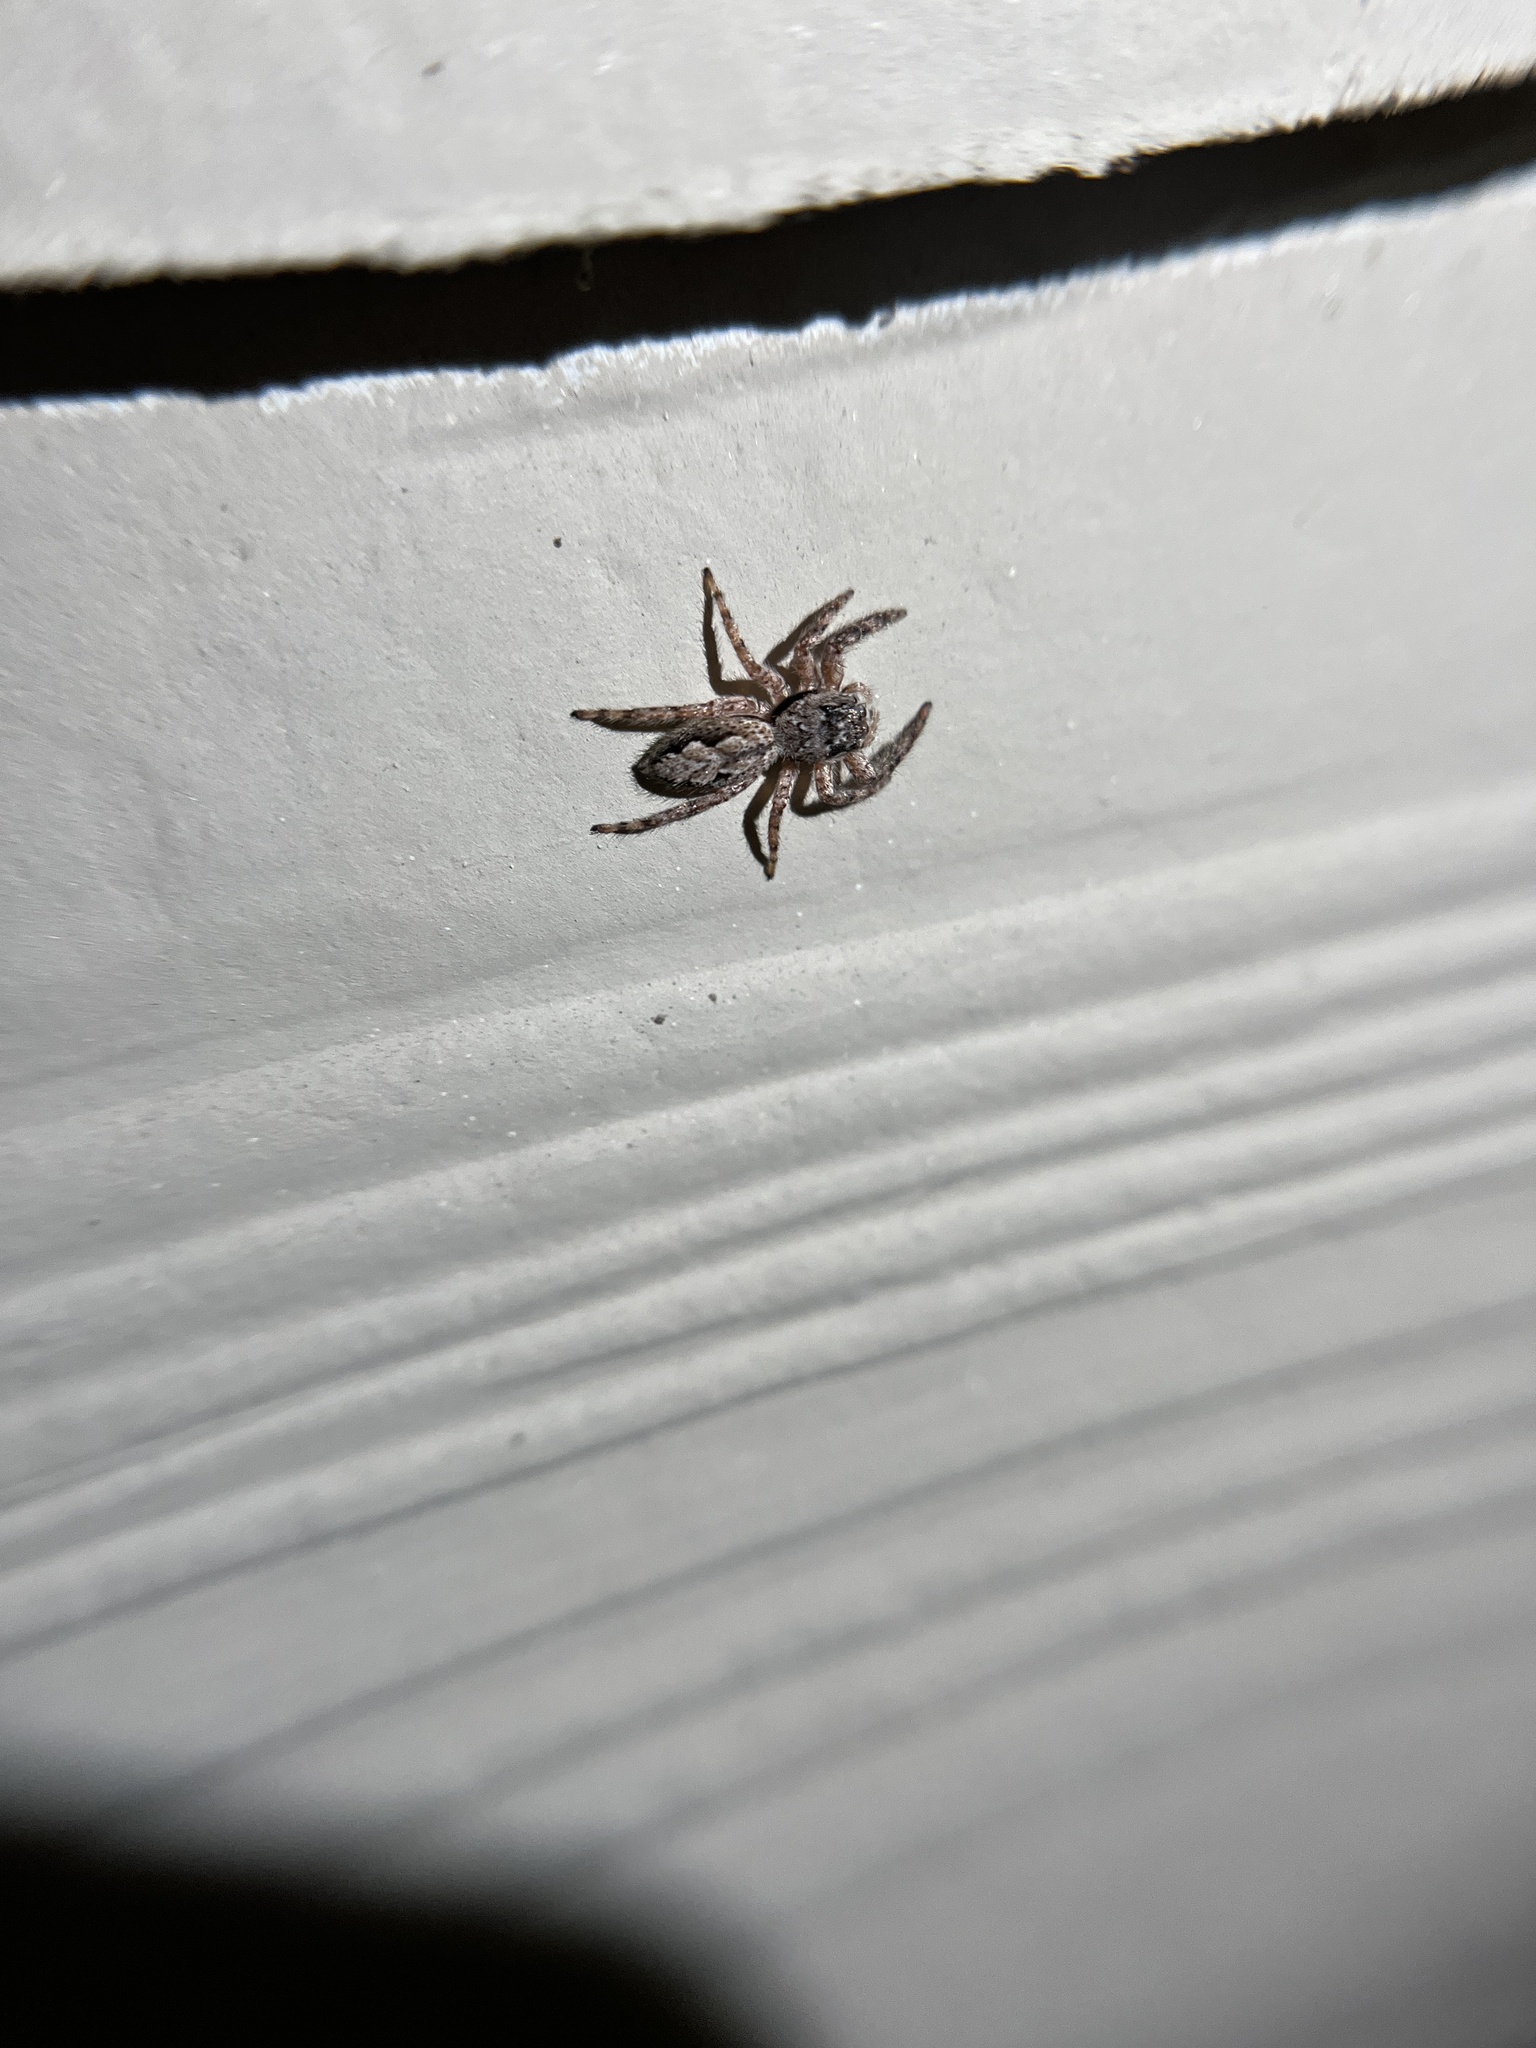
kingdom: Animalia
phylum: Arthropoda
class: Arachnida
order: Araneae
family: Salticidae
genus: Platycryptus
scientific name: Platycryptus undatus
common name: Tan jumping spider
